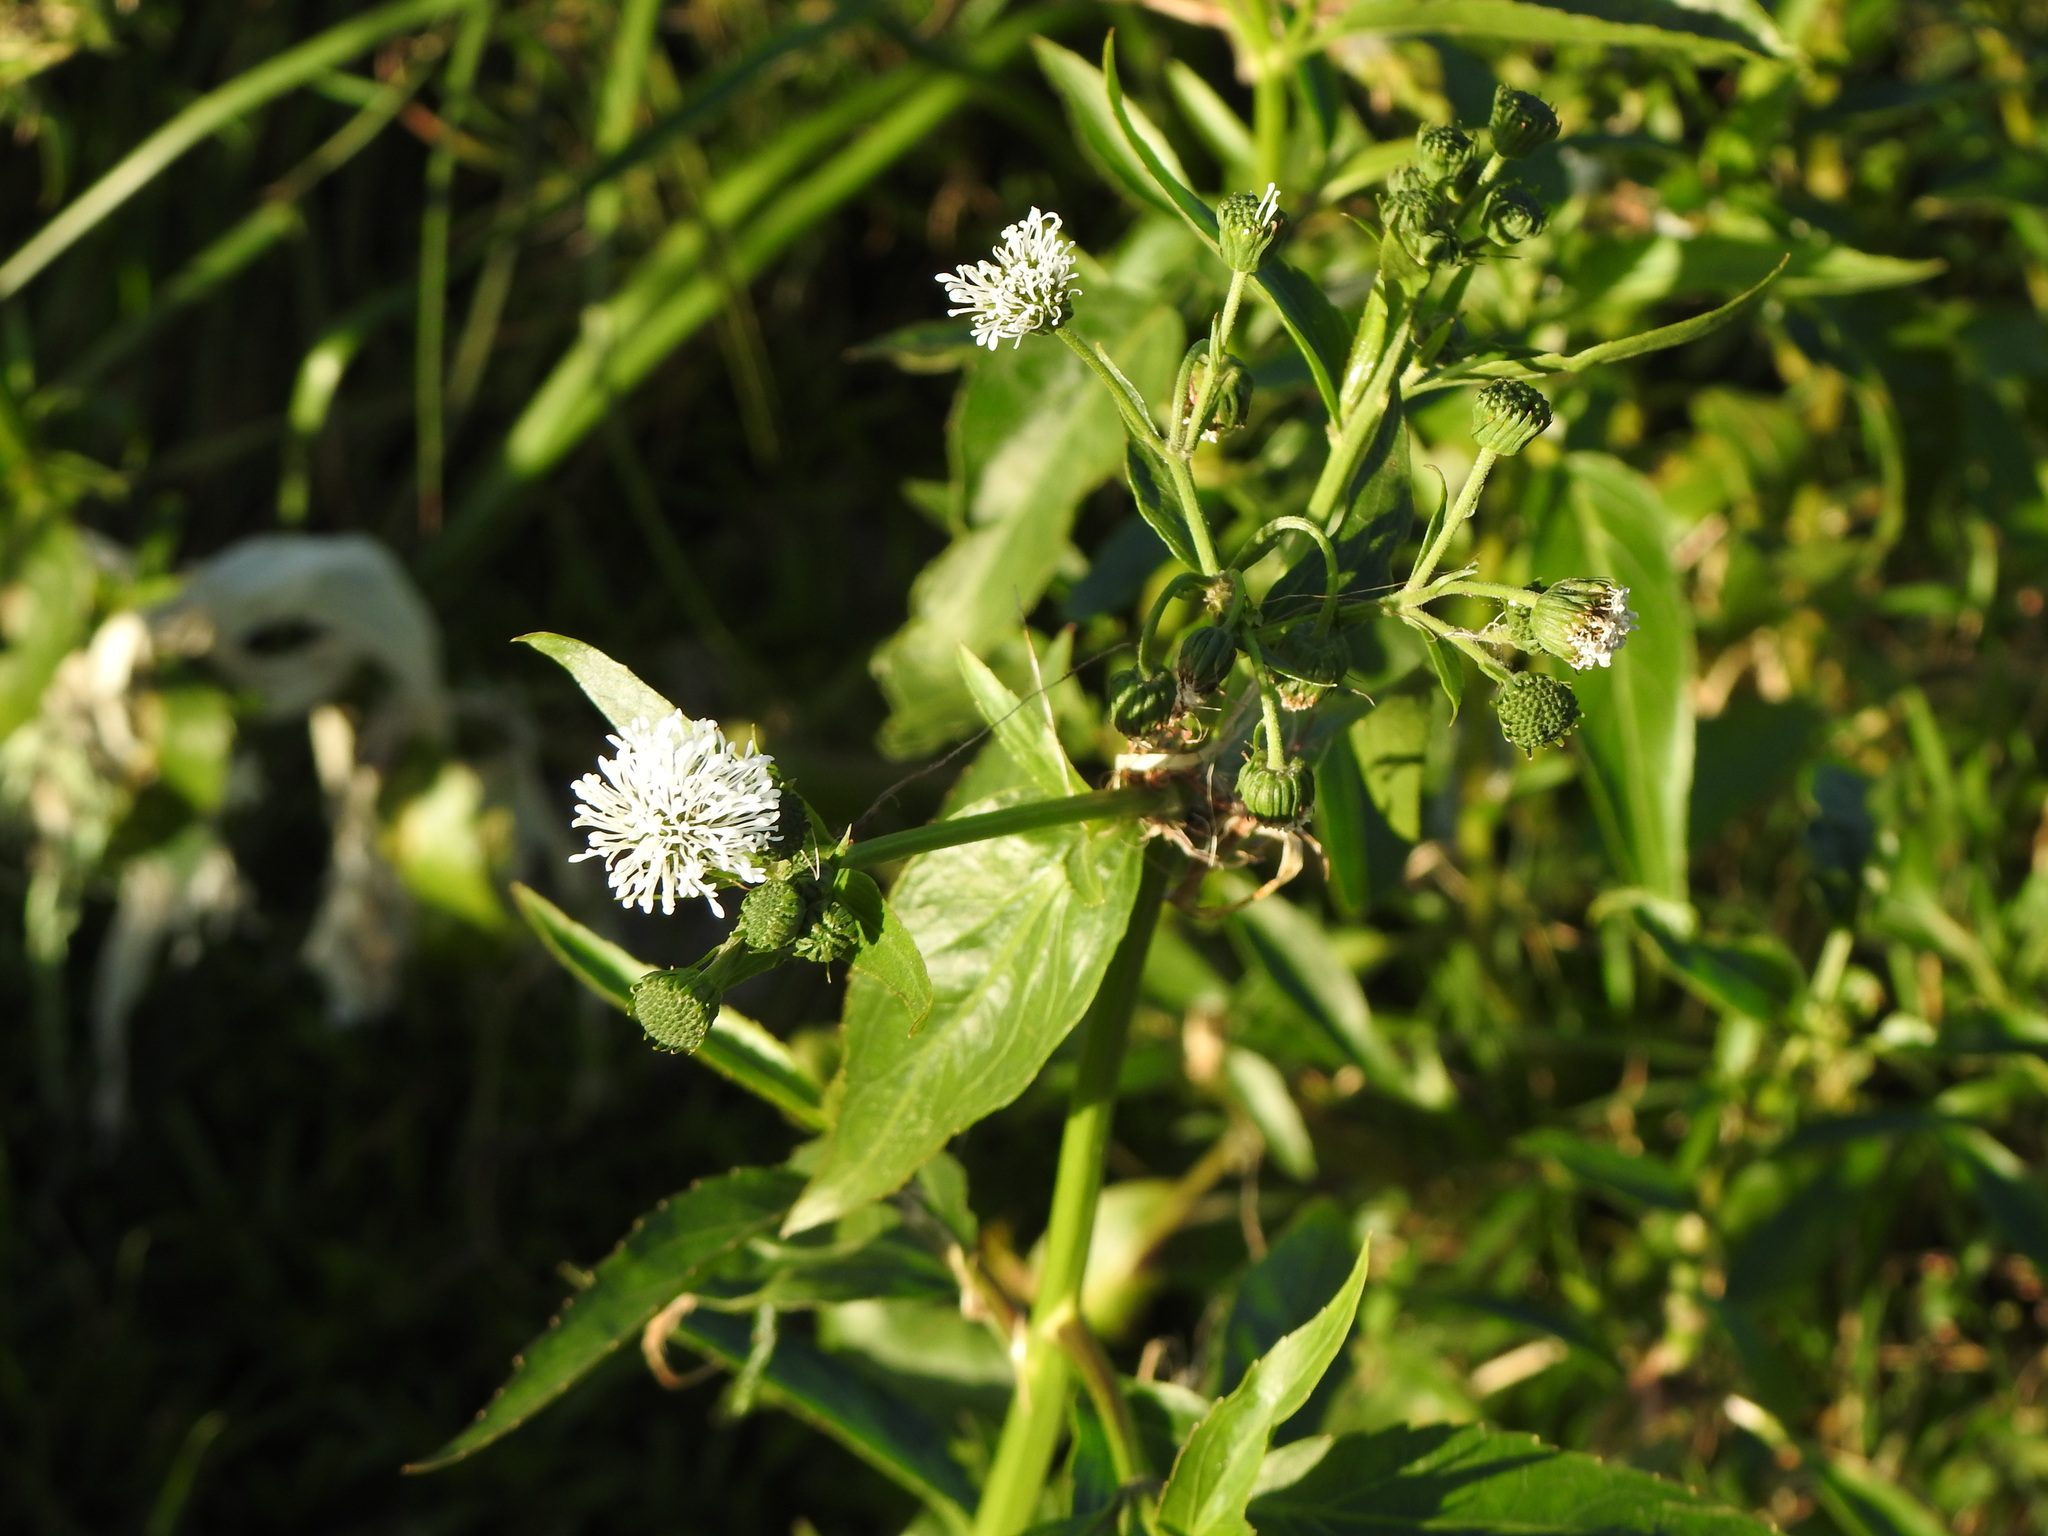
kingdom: Plantae
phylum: Tracheophyta
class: Magnoliopsida
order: Asterales
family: Asteraceae
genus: Gymnocoronis
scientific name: Gymnocoronis spilanthoides
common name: Senegal teaplant
